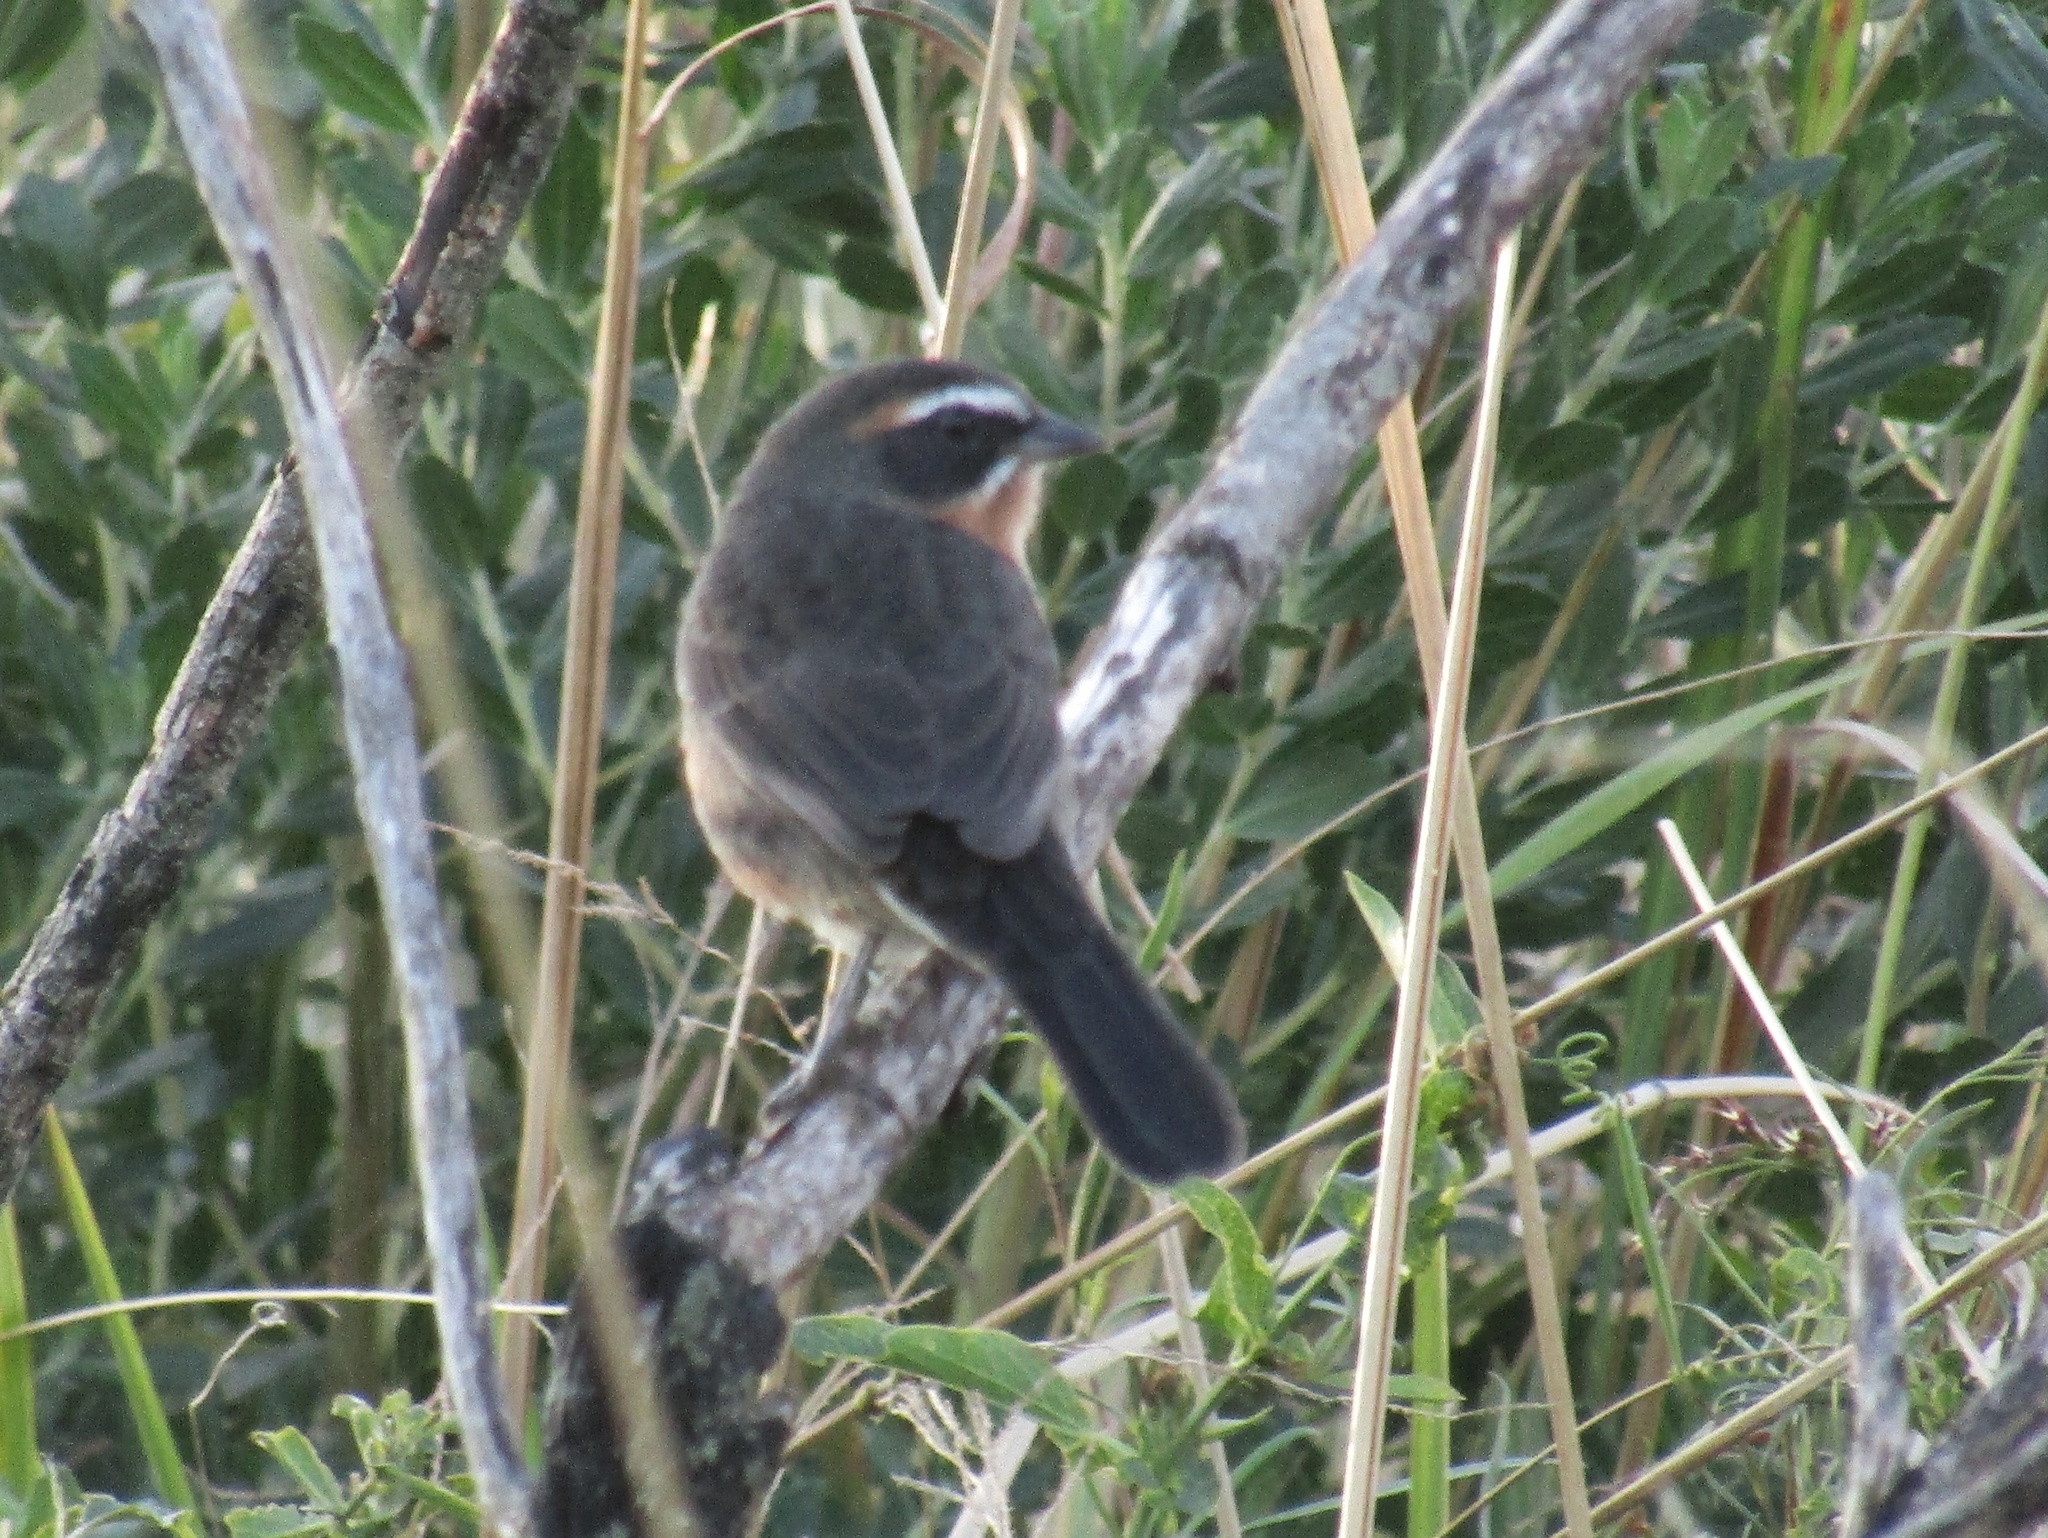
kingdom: Animalia
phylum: Chordata
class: Aves
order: Passeriformes
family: Thraupidae
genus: Poospiza
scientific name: Poospiza nigrorufa
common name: Black-and-rufous warbling finch
